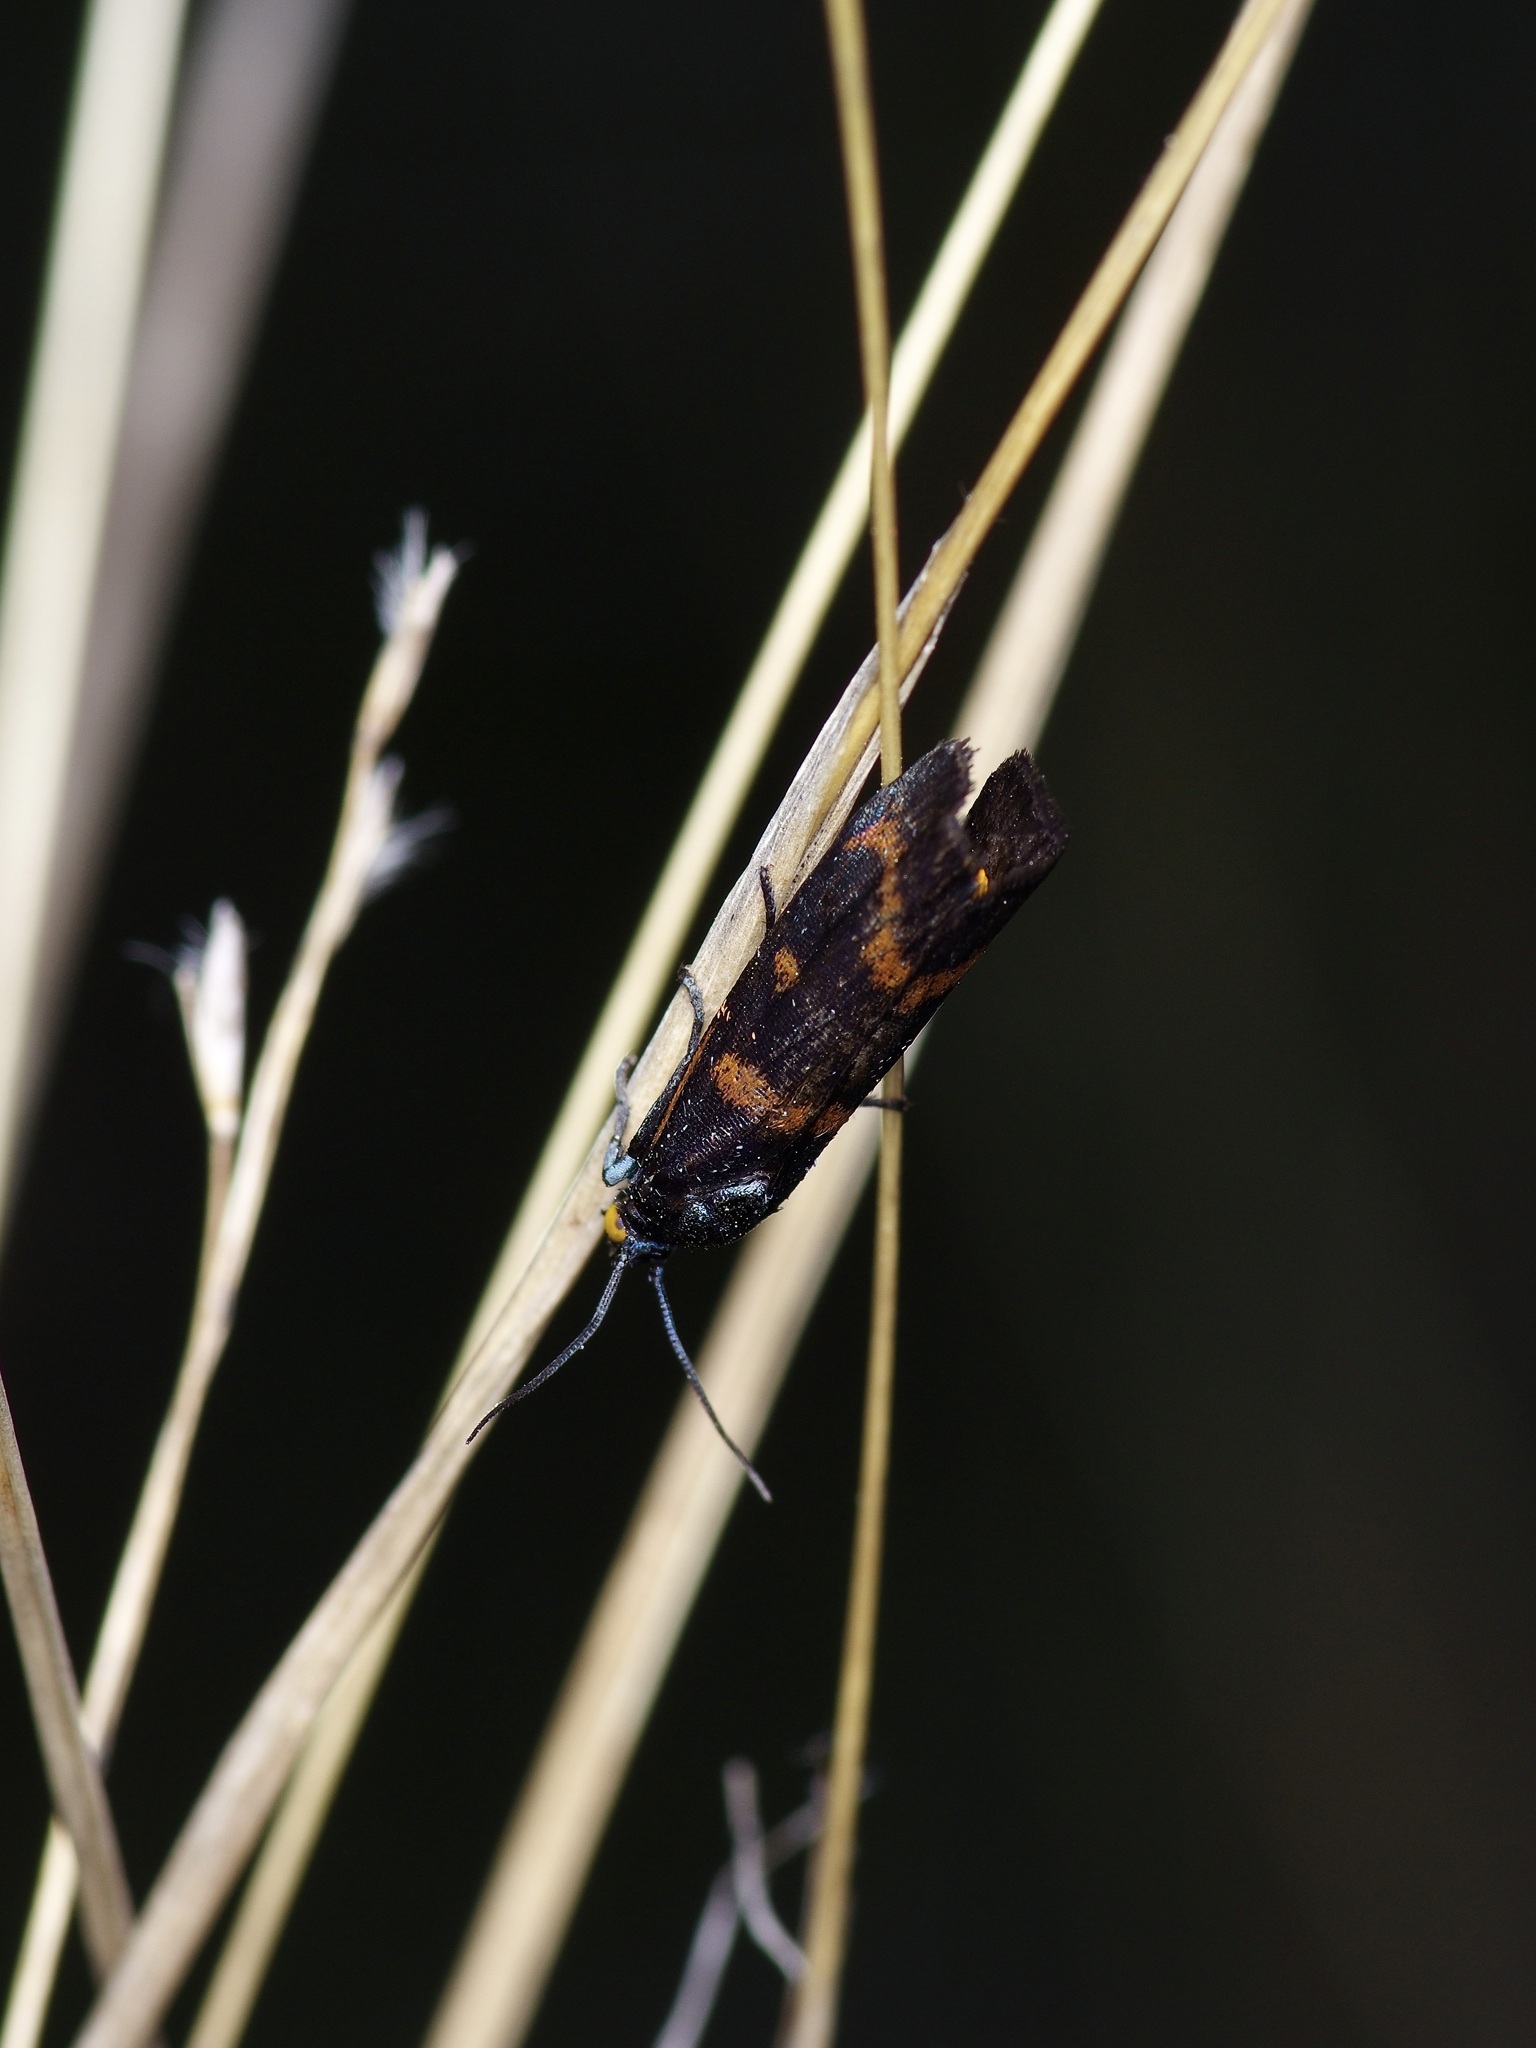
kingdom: Animalia
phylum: Arthropoda
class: Insecta
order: Lepidoptera
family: Noctuidae
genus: Cydosia
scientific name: Cydosia aurivitta
